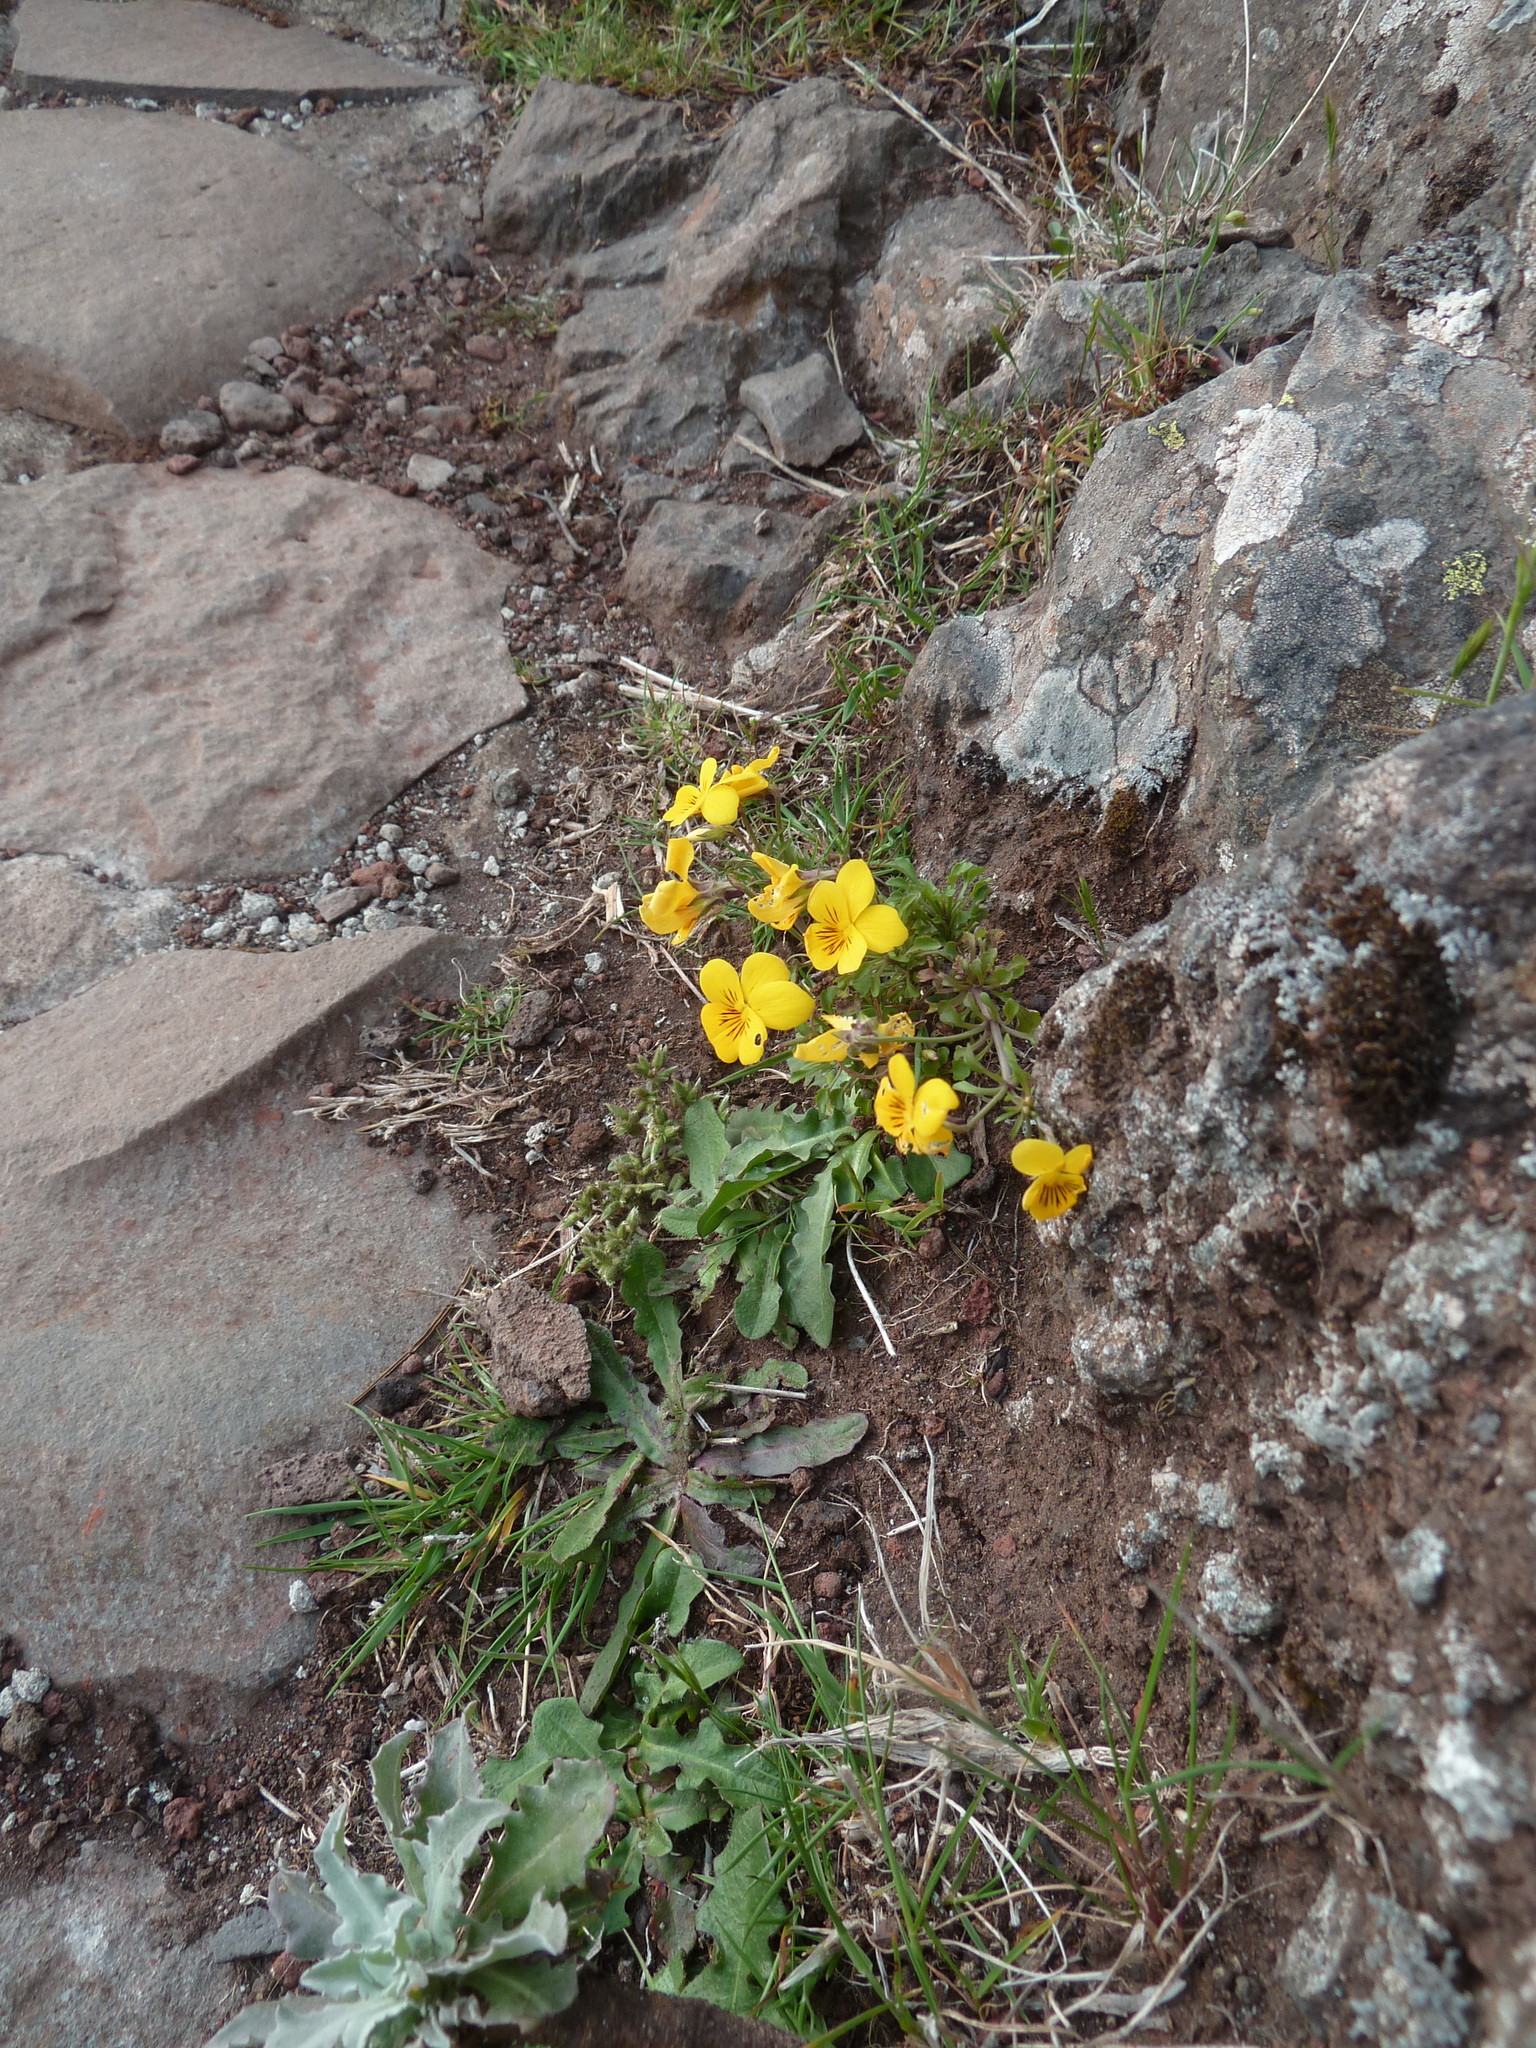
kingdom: Plantae
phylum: Tracheophyta
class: Magnoliopsida
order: Malpighiales
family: Violaceae
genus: Viola
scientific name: Viola paradoxa
